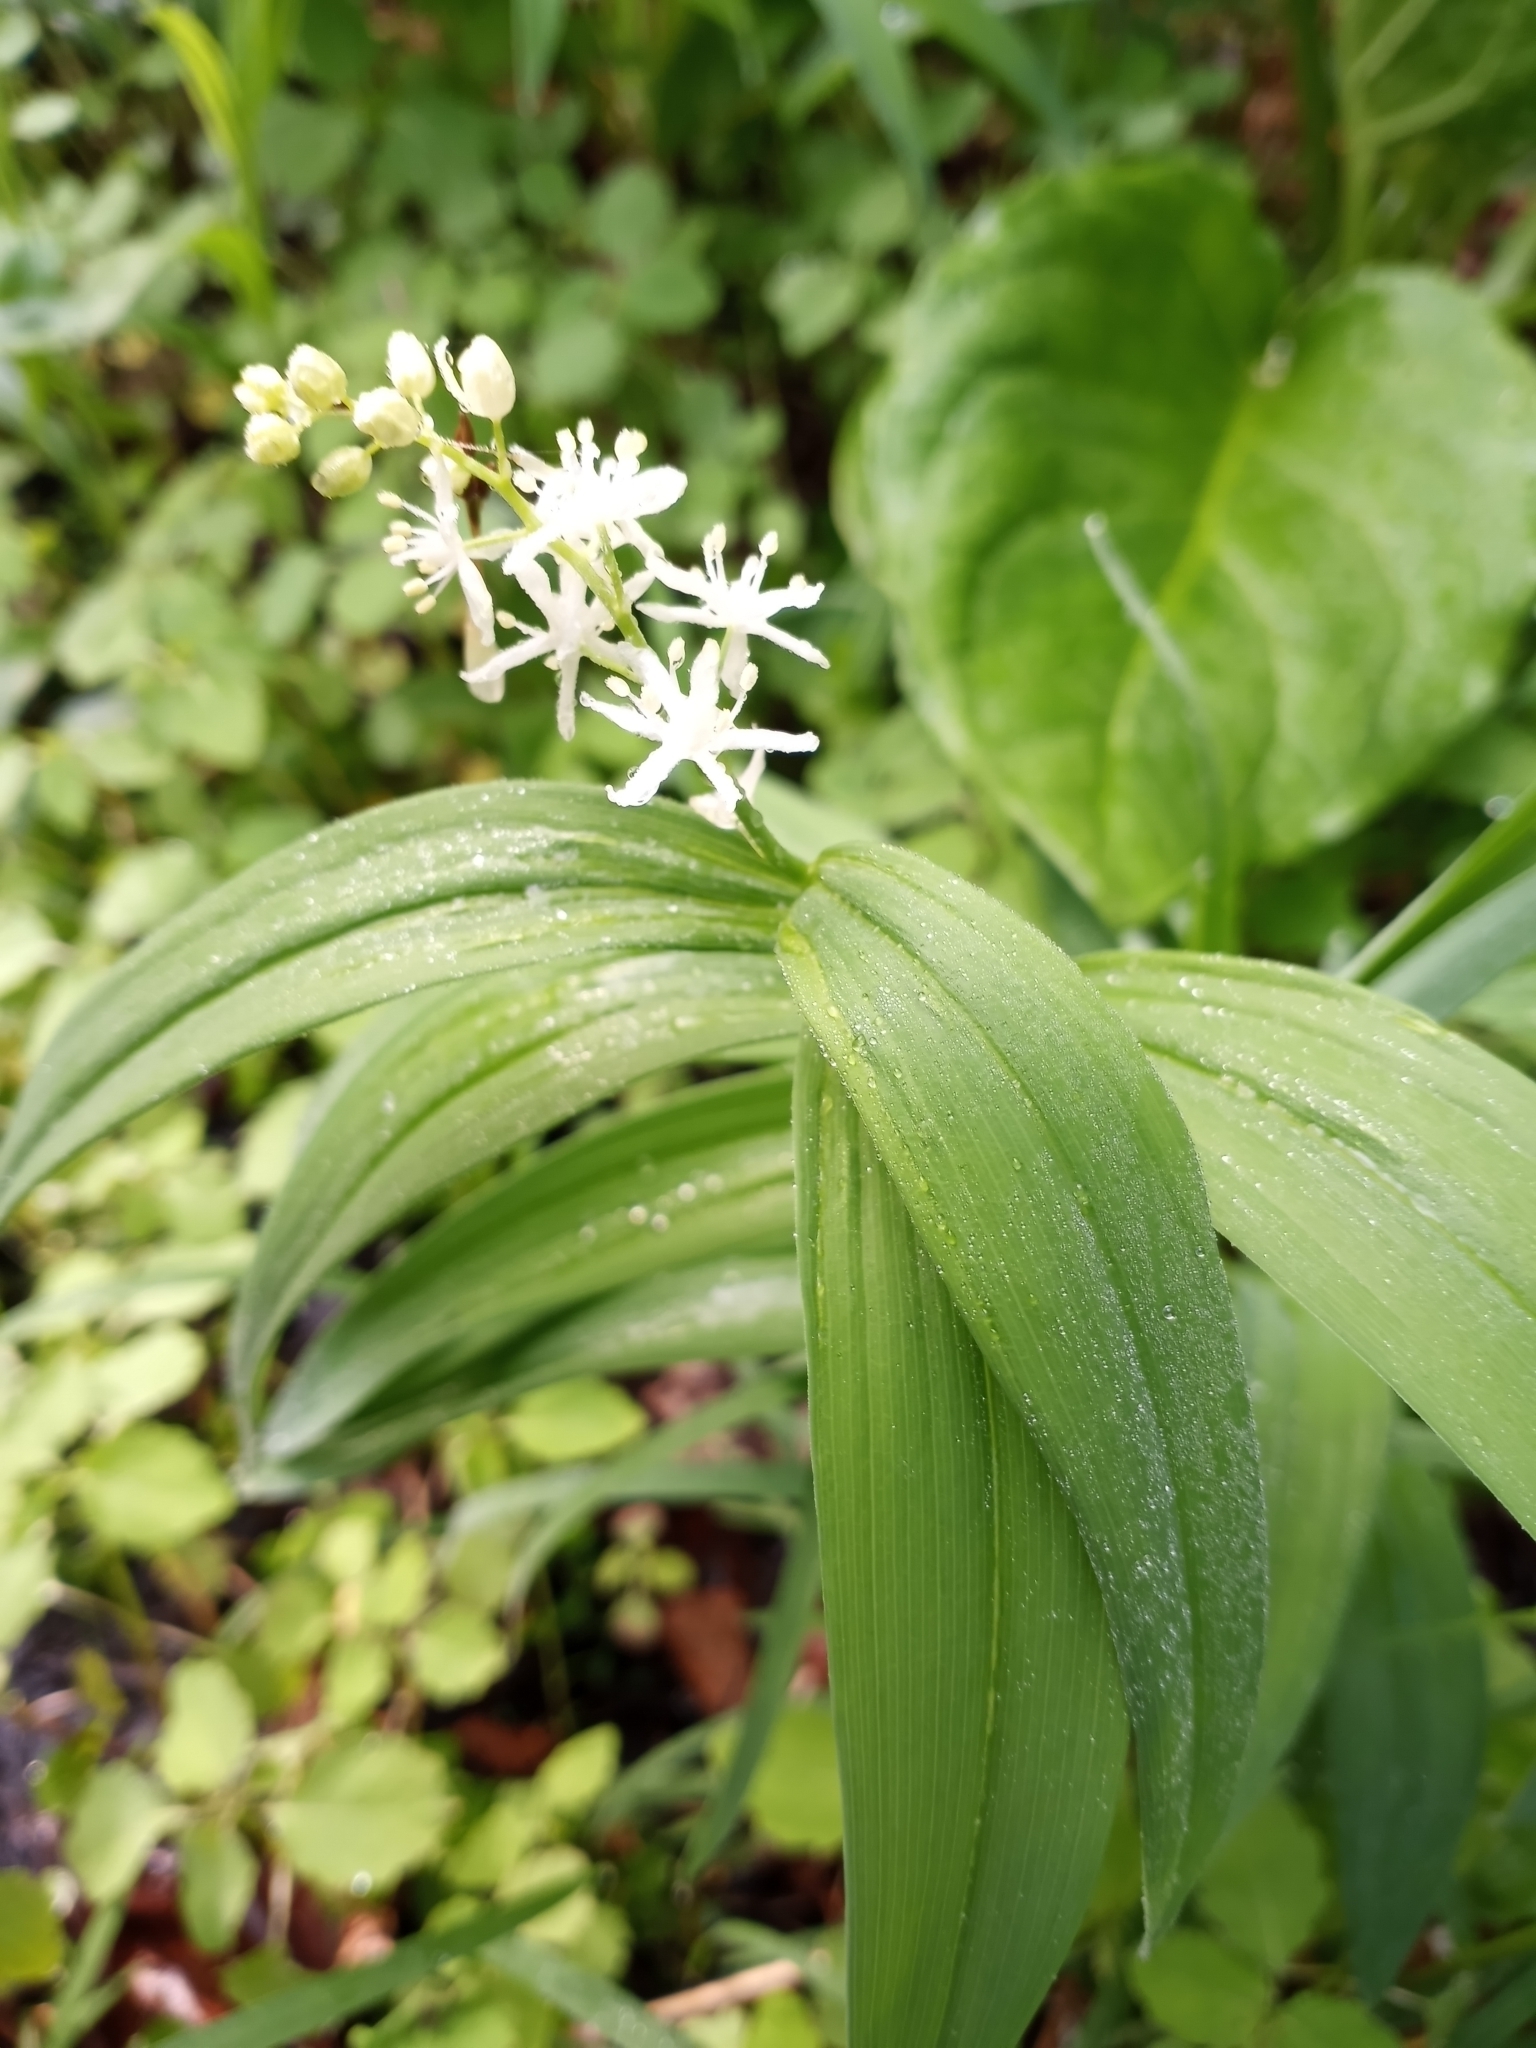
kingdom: Plantae
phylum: Tracheophyta
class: Liliopsida
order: Asparagales
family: Asparagaceae
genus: Maianthemum
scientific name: Maianthemum stellatum
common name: Little false solomon's seal
